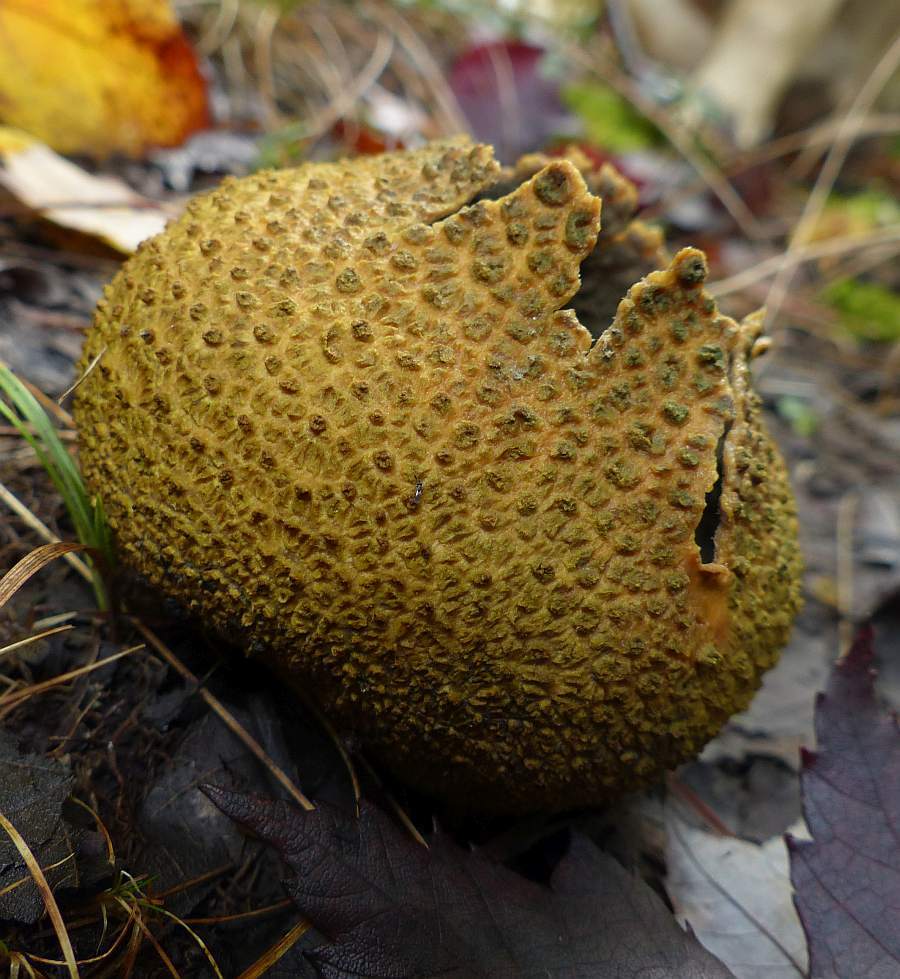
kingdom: Fungi
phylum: Basidiomycota
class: Agaricomycetes
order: Boletales
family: Sclerodermataceae
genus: Scleroderma
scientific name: Scleroderma citrinum
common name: Common earthball
